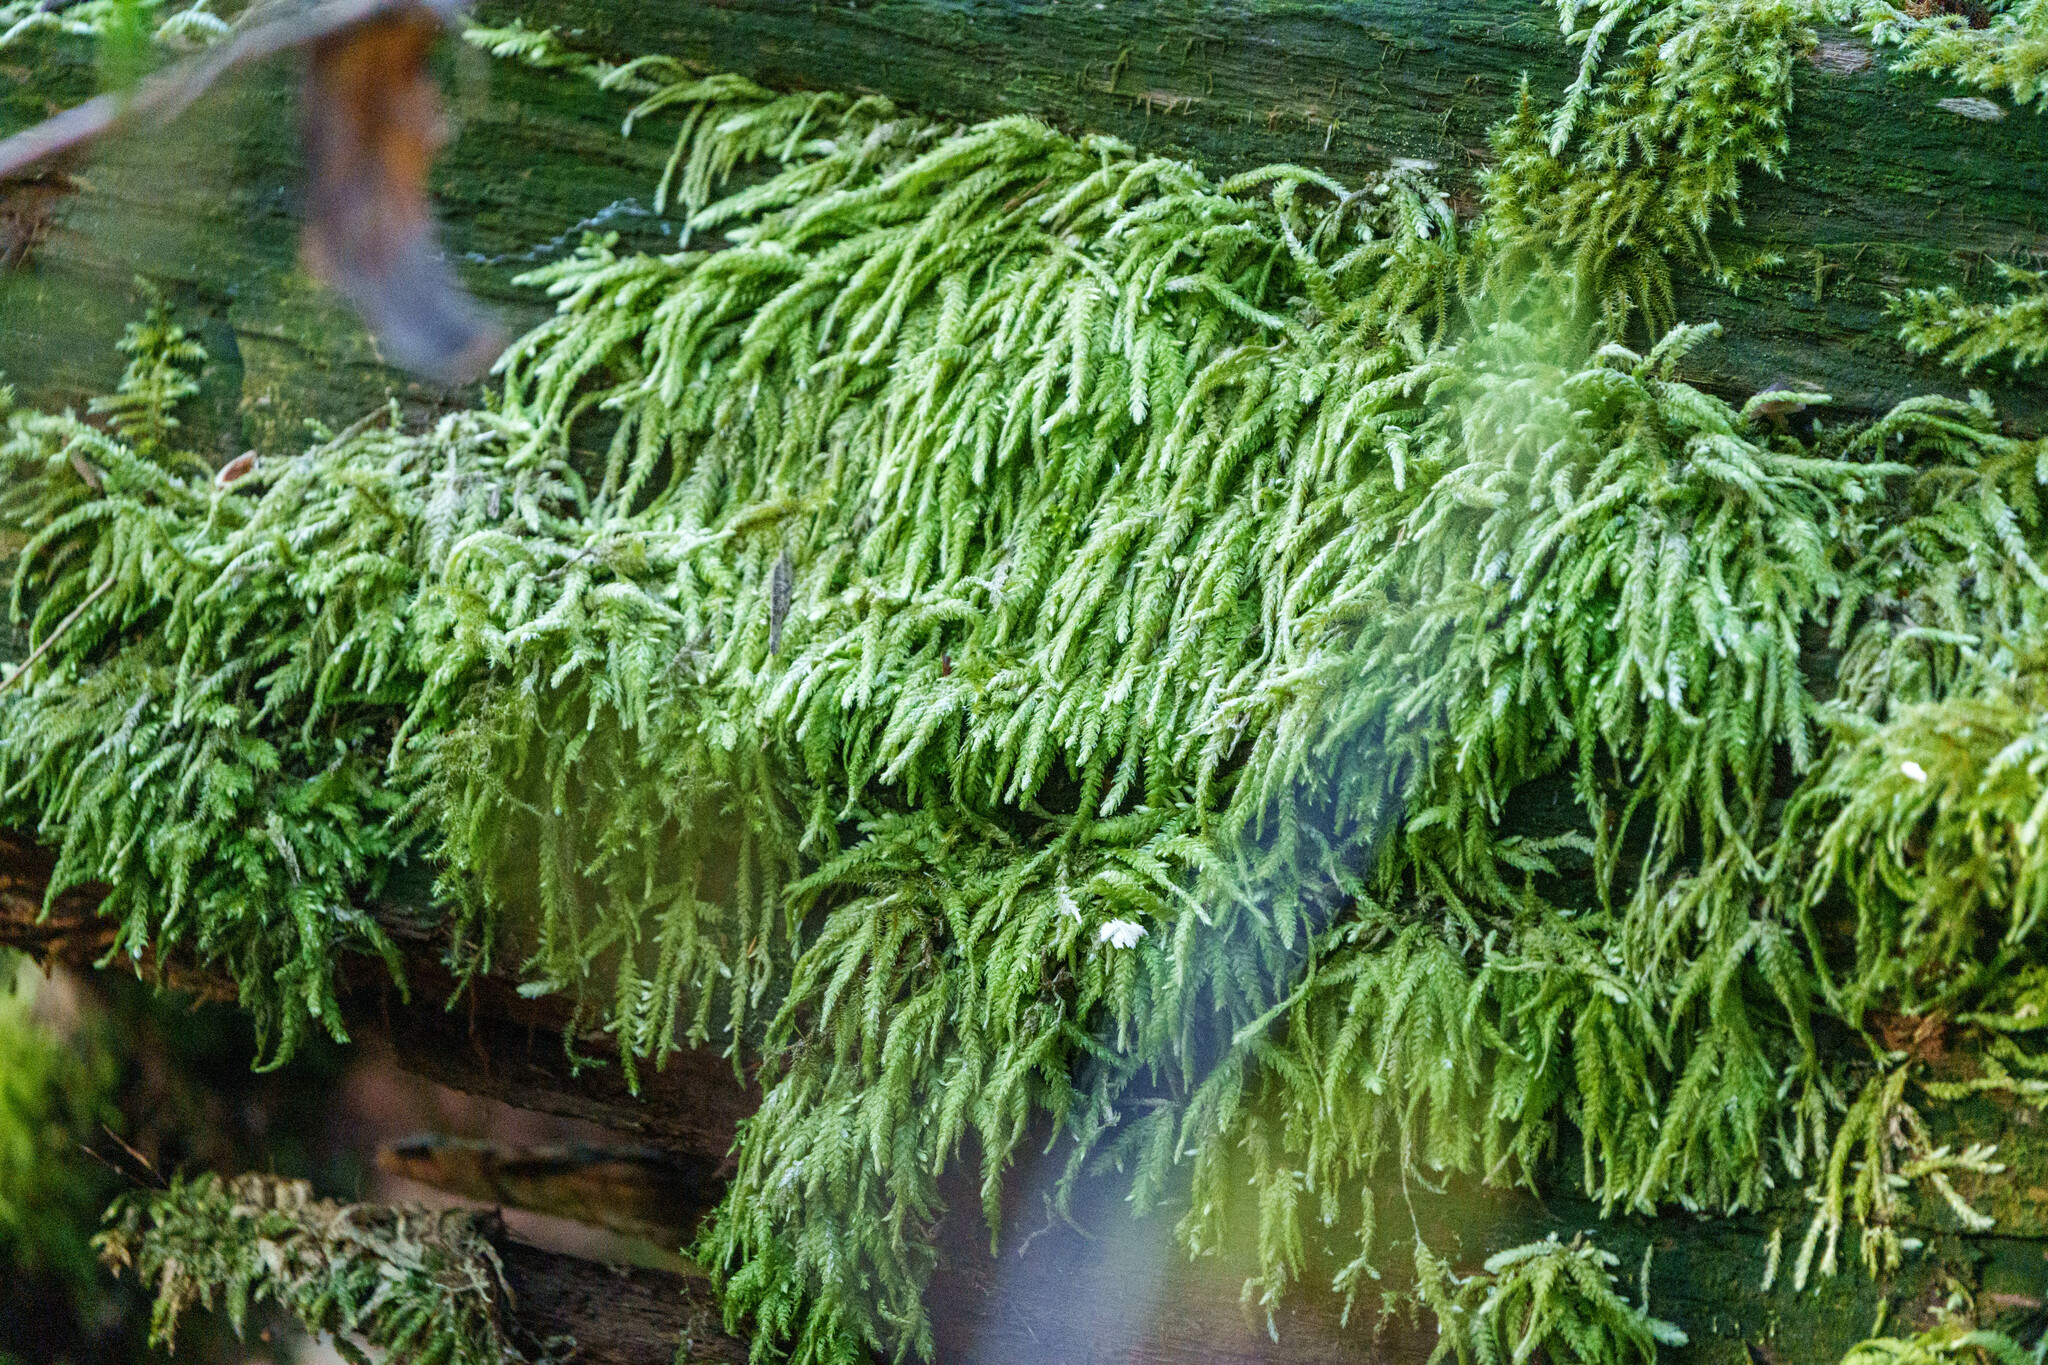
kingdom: Plantae
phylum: Bryophyta
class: Bryopsida
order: Hypnales
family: Plagiotheciaceae
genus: Plagiothecium
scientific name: Plagiothecium undulatum
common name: Waved silk-moss
